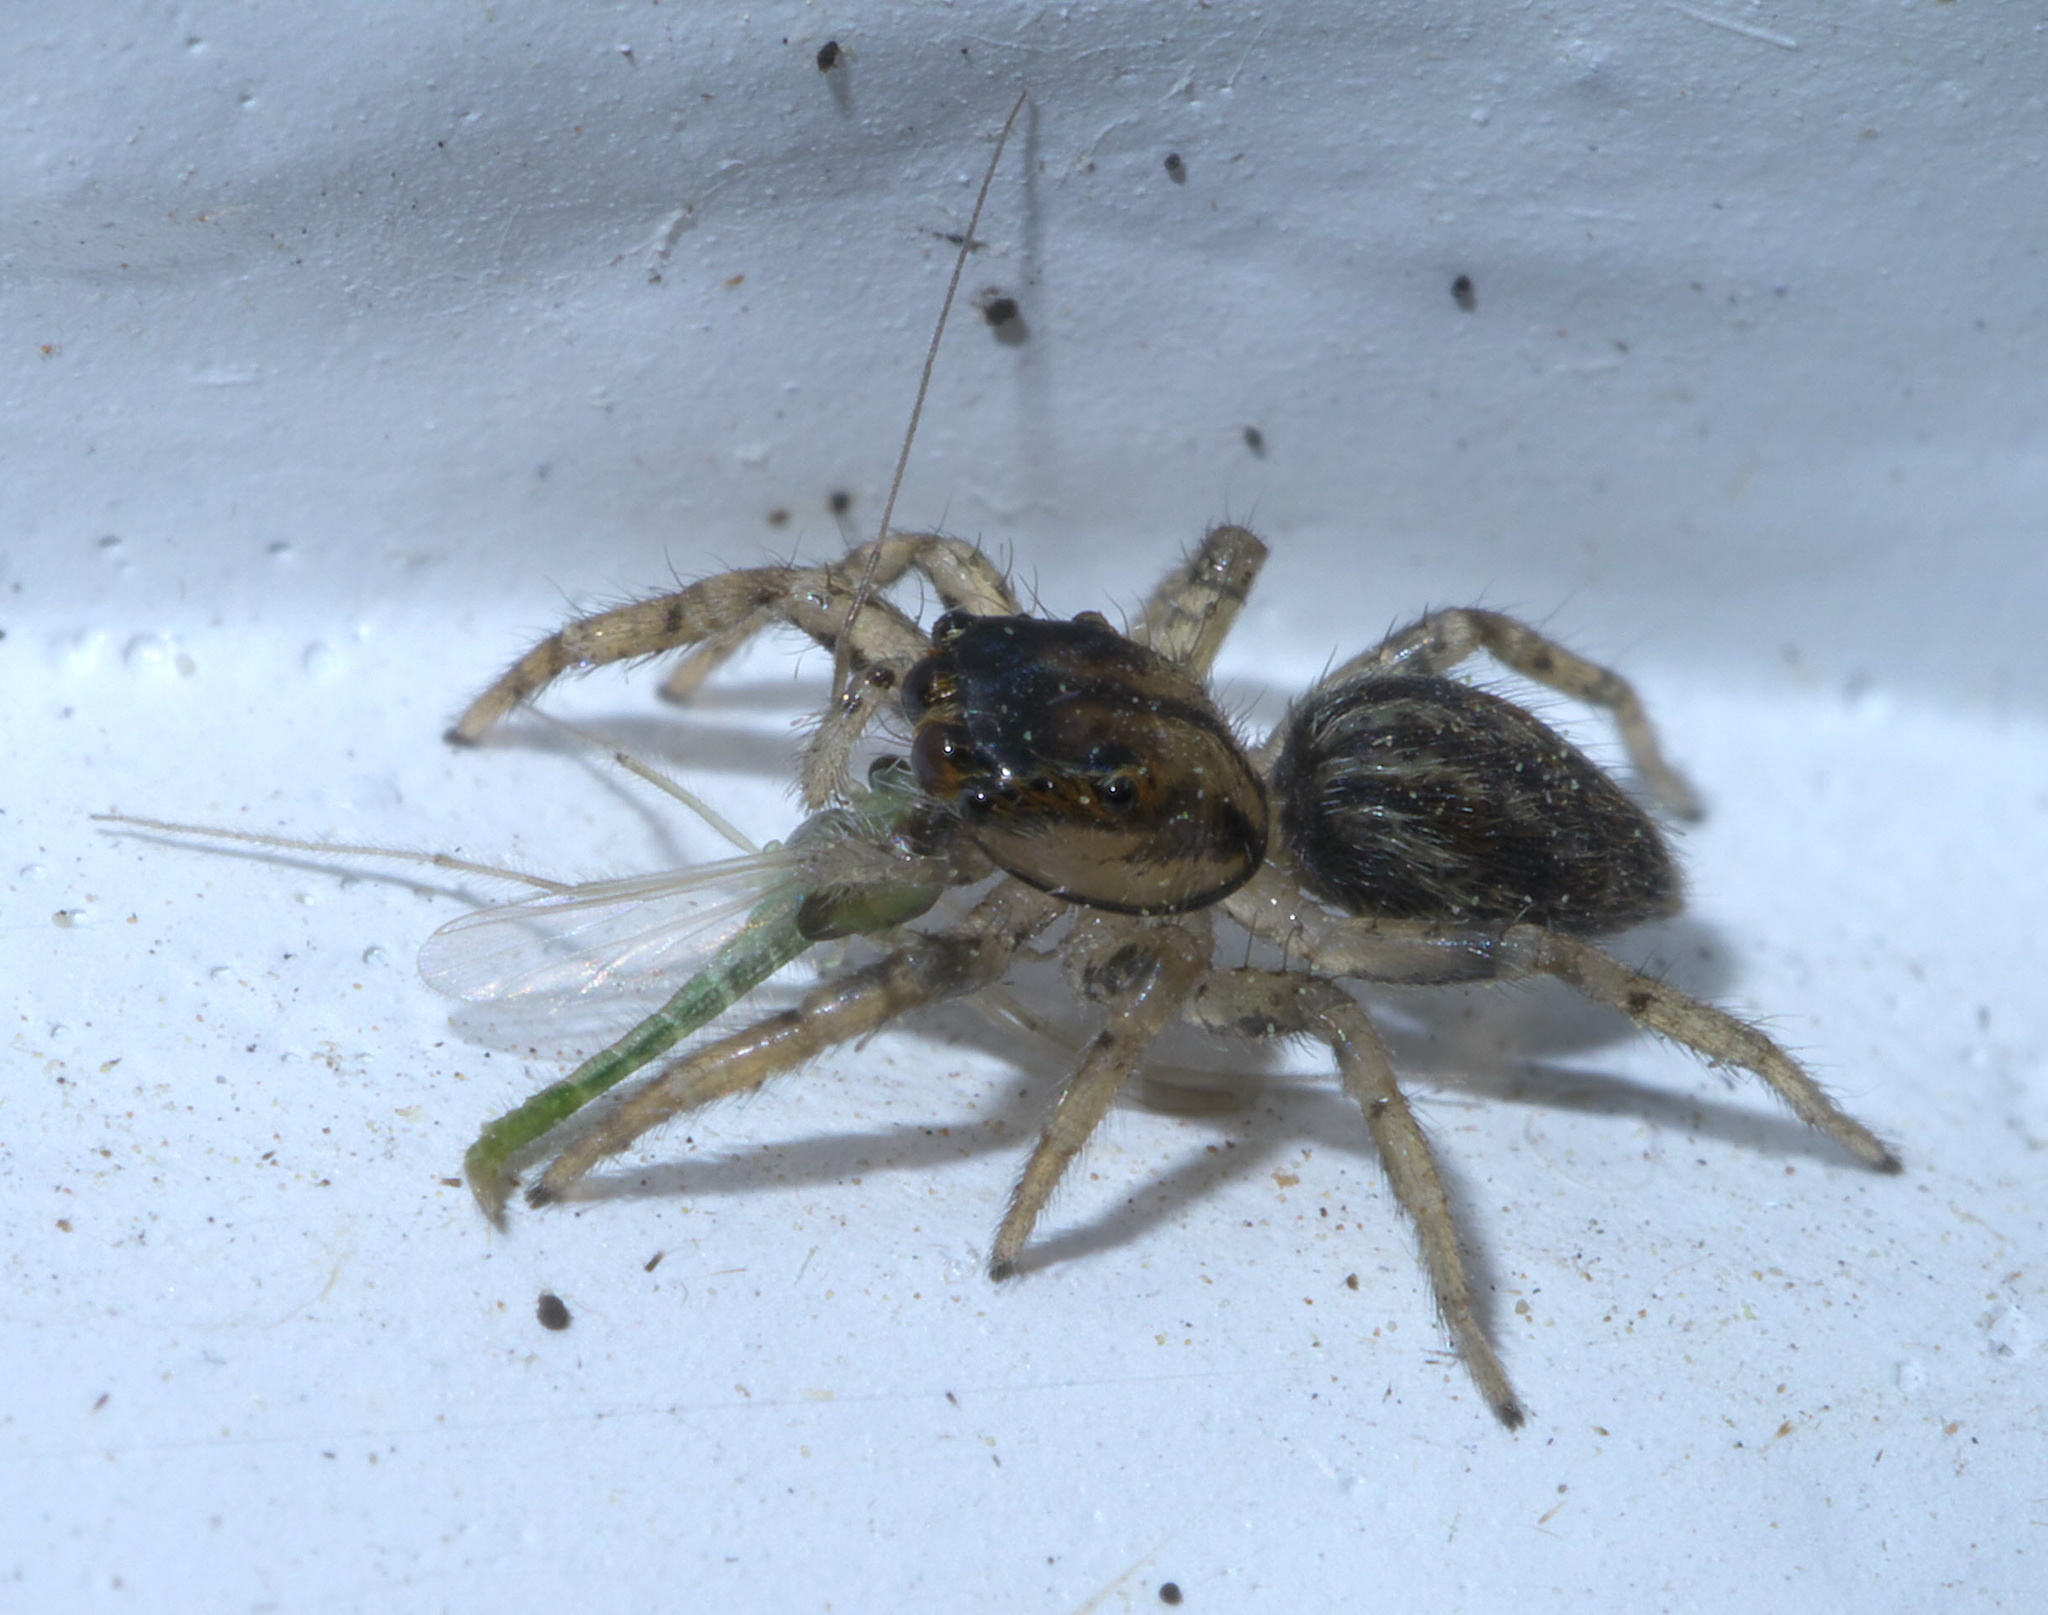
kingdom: Animalia
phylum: Arthropoda
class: Arachnida
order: Araneae
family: Salticidae
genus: Maevia
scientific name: Maevia inclemens
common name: Dimorphic jumper
